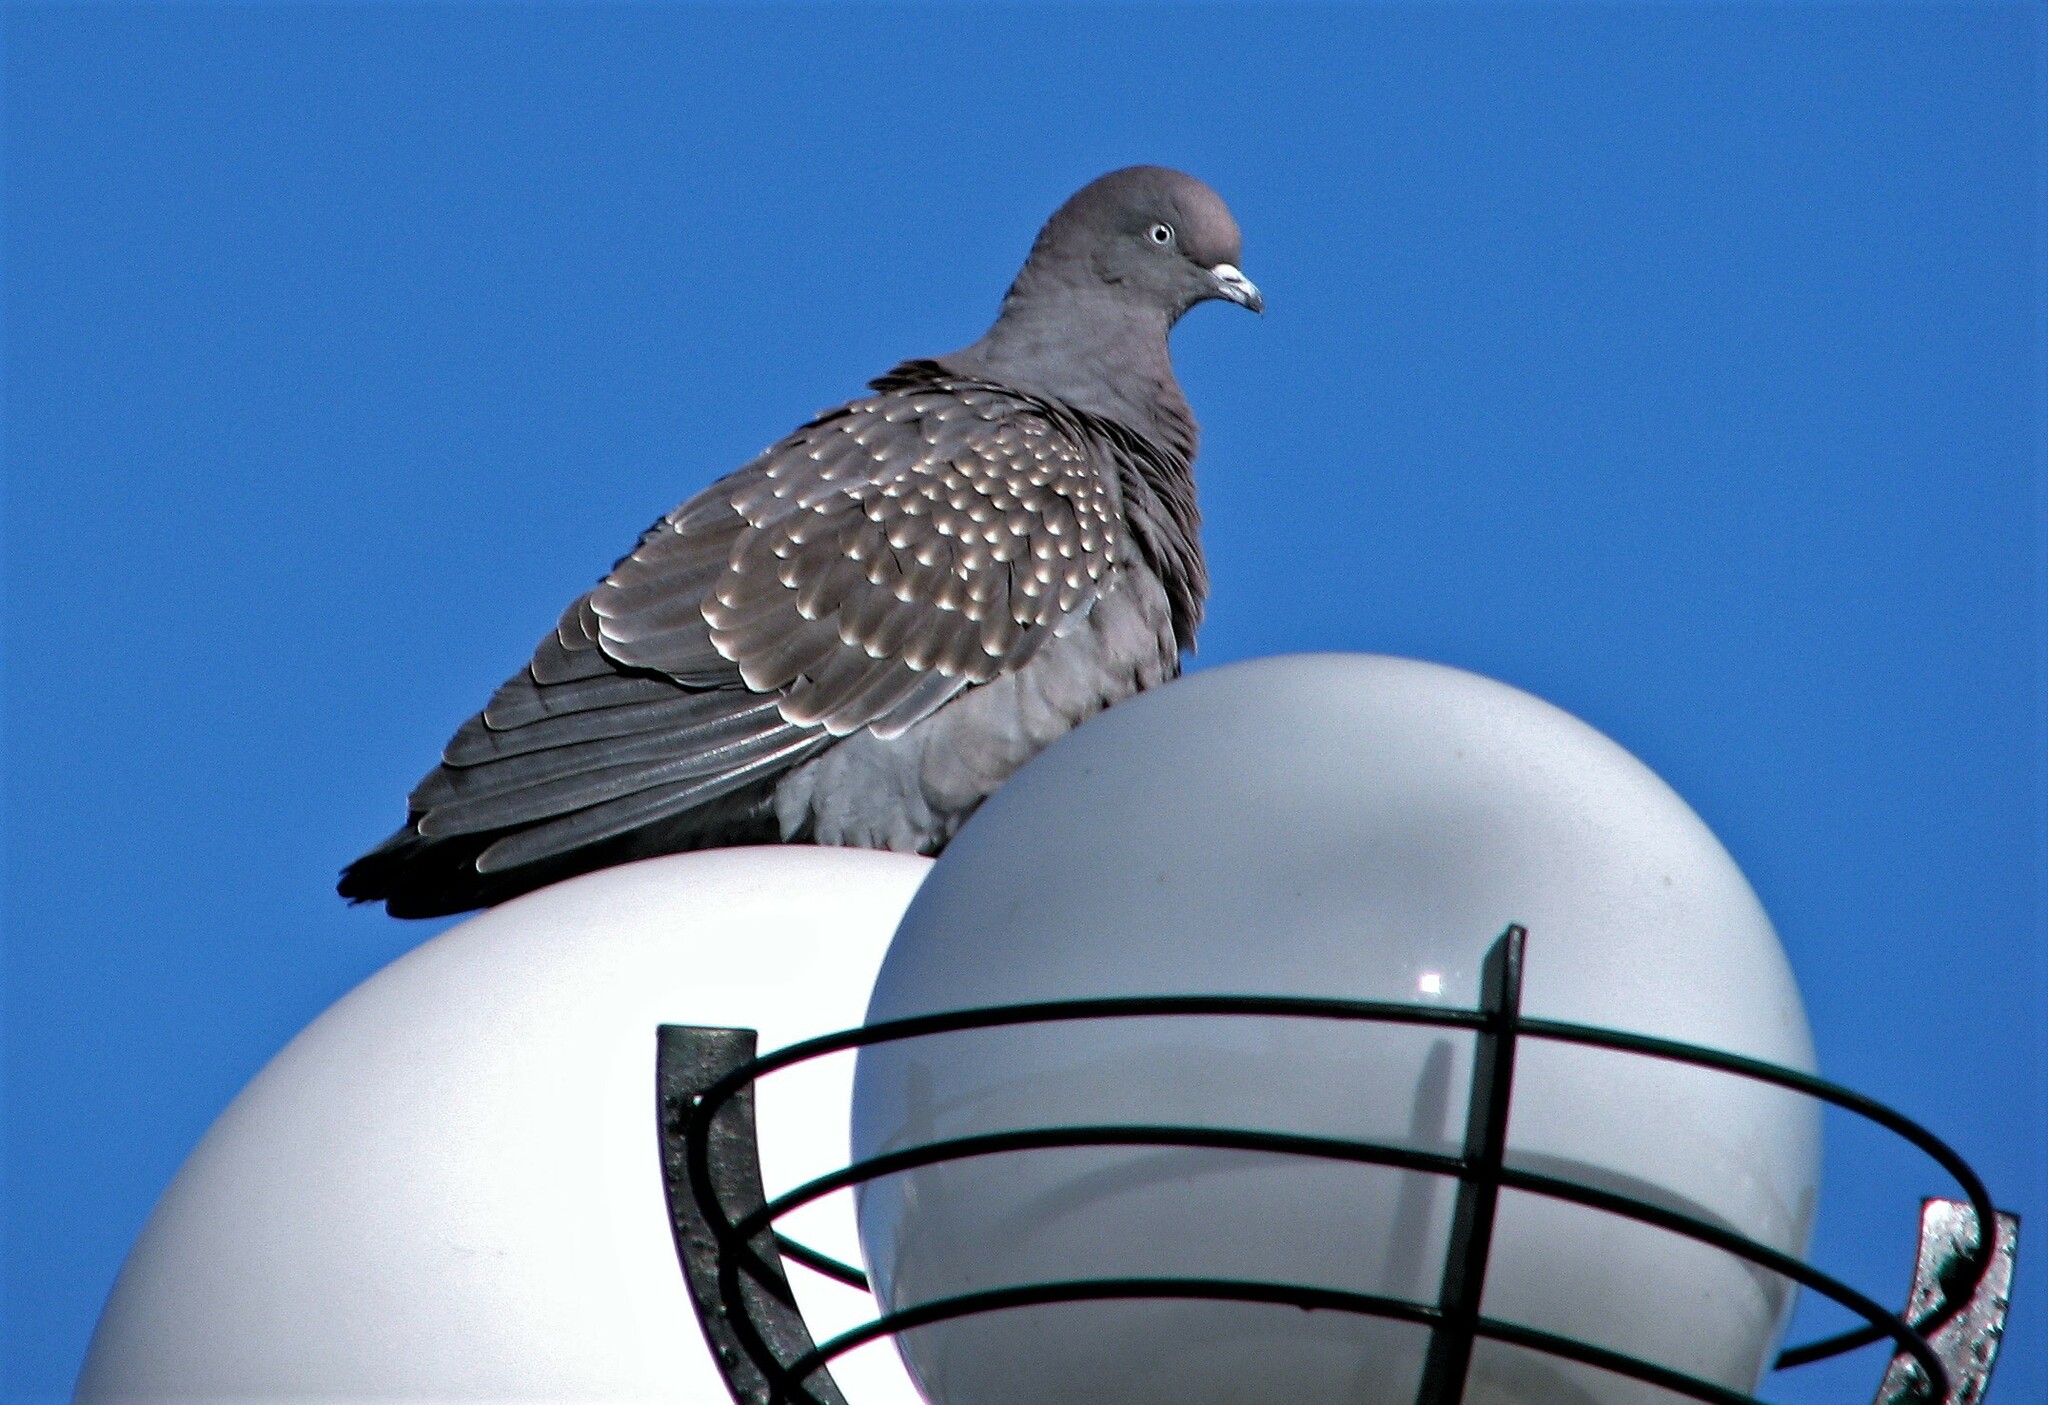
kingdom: Animalia
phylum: Chordata
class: Aves
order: Columbiformes
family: Columbidae
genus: Patagioenas
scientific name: Patagioenas maculosa
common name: Spot-winged pigeon
